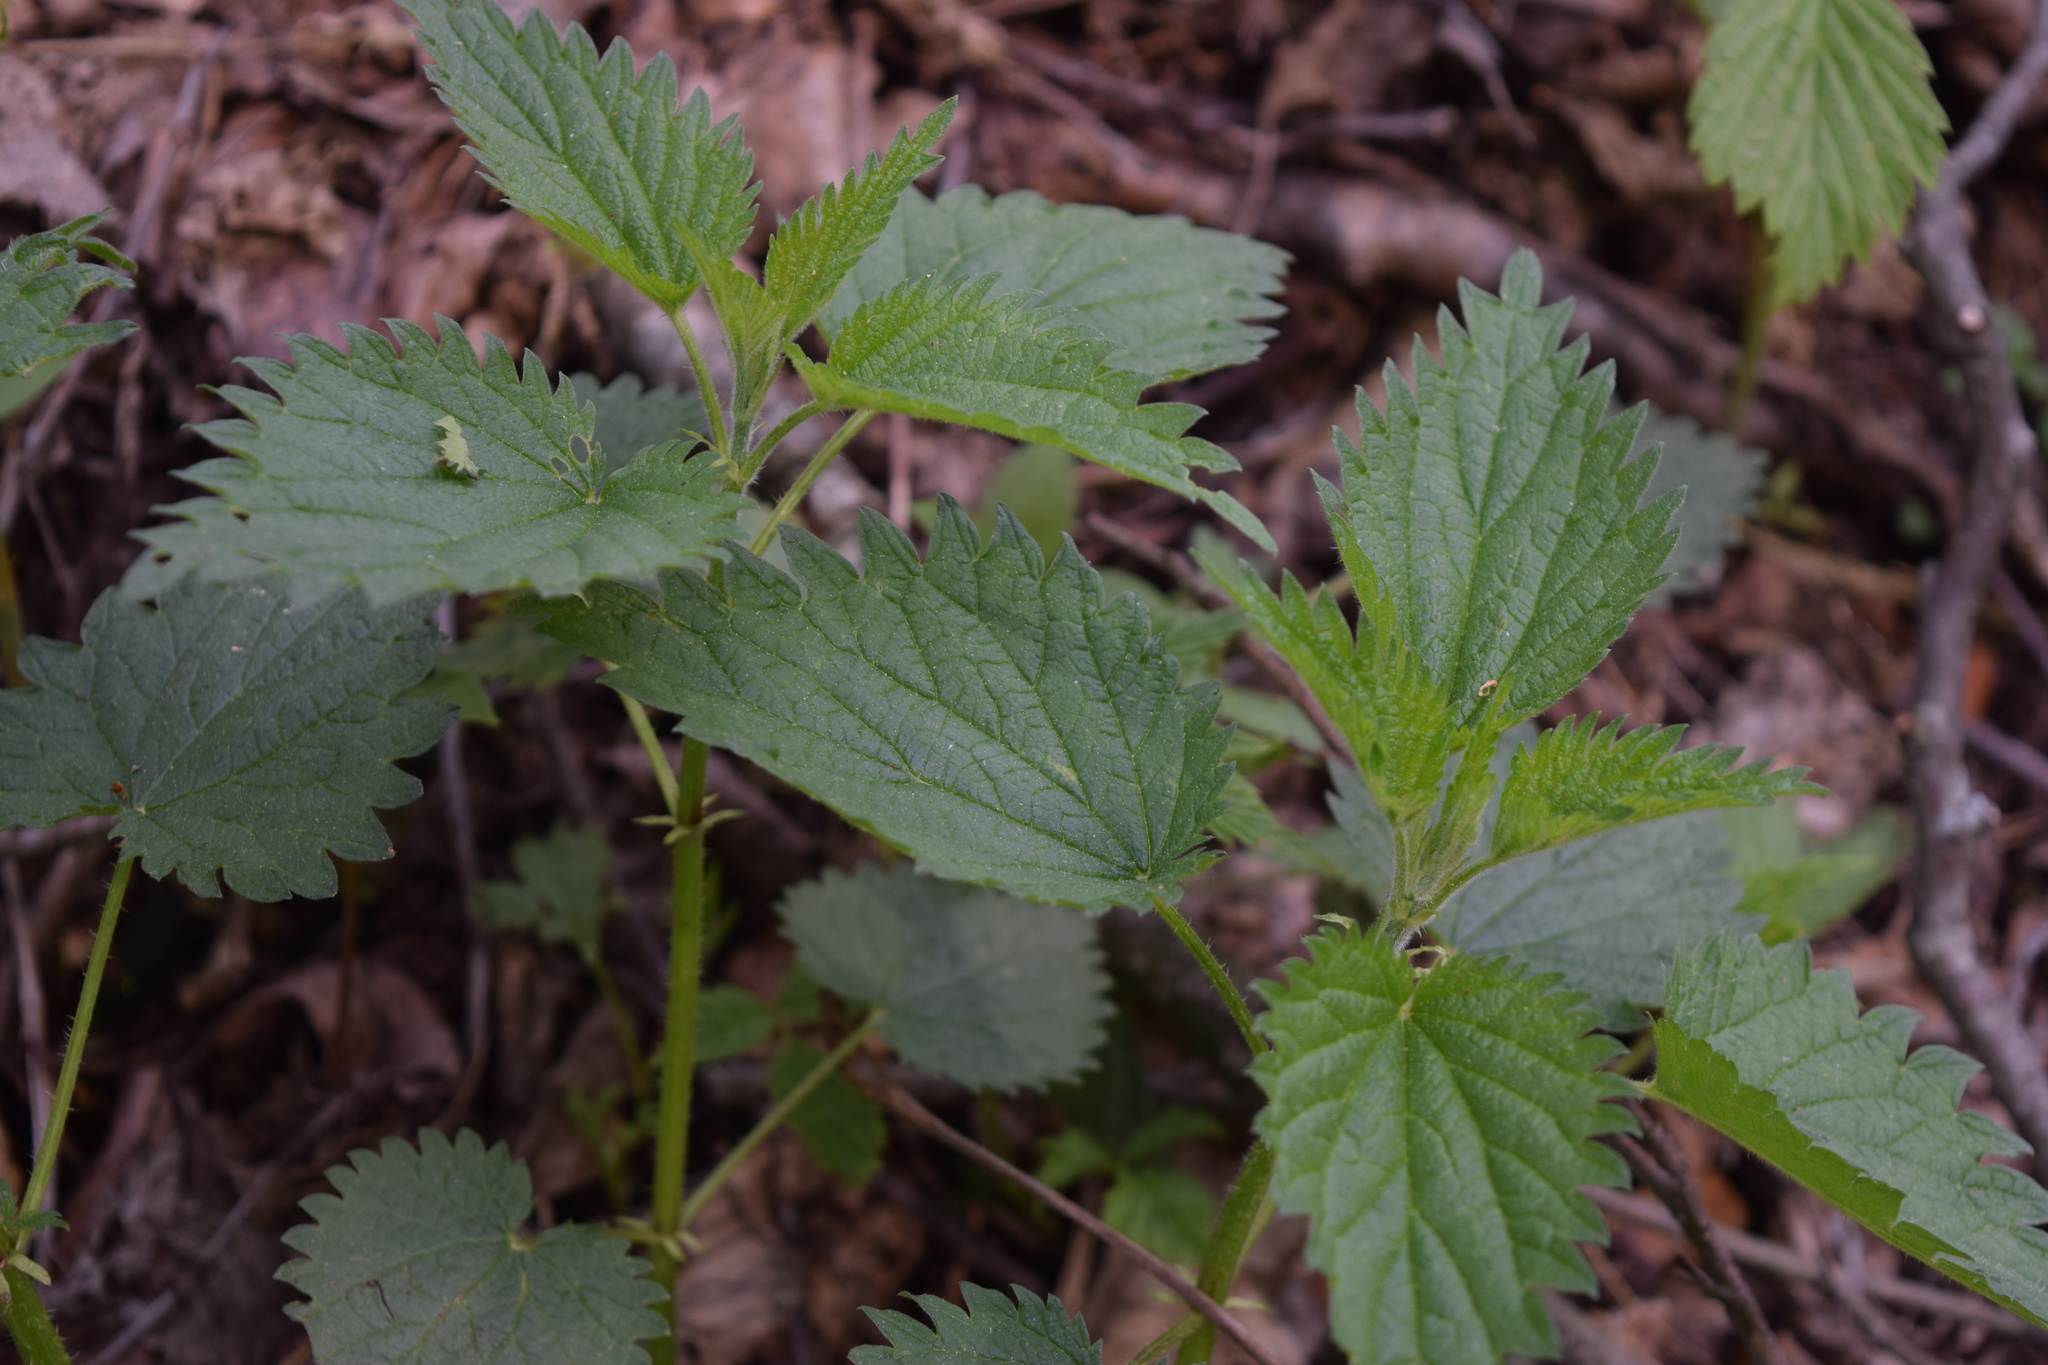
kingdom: Plantae
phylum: Tracheophyta
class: Magnoliopsida
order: Rosales
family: Urticaceae
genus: Urtica
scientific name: Urtica dioica
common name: Common nettle
